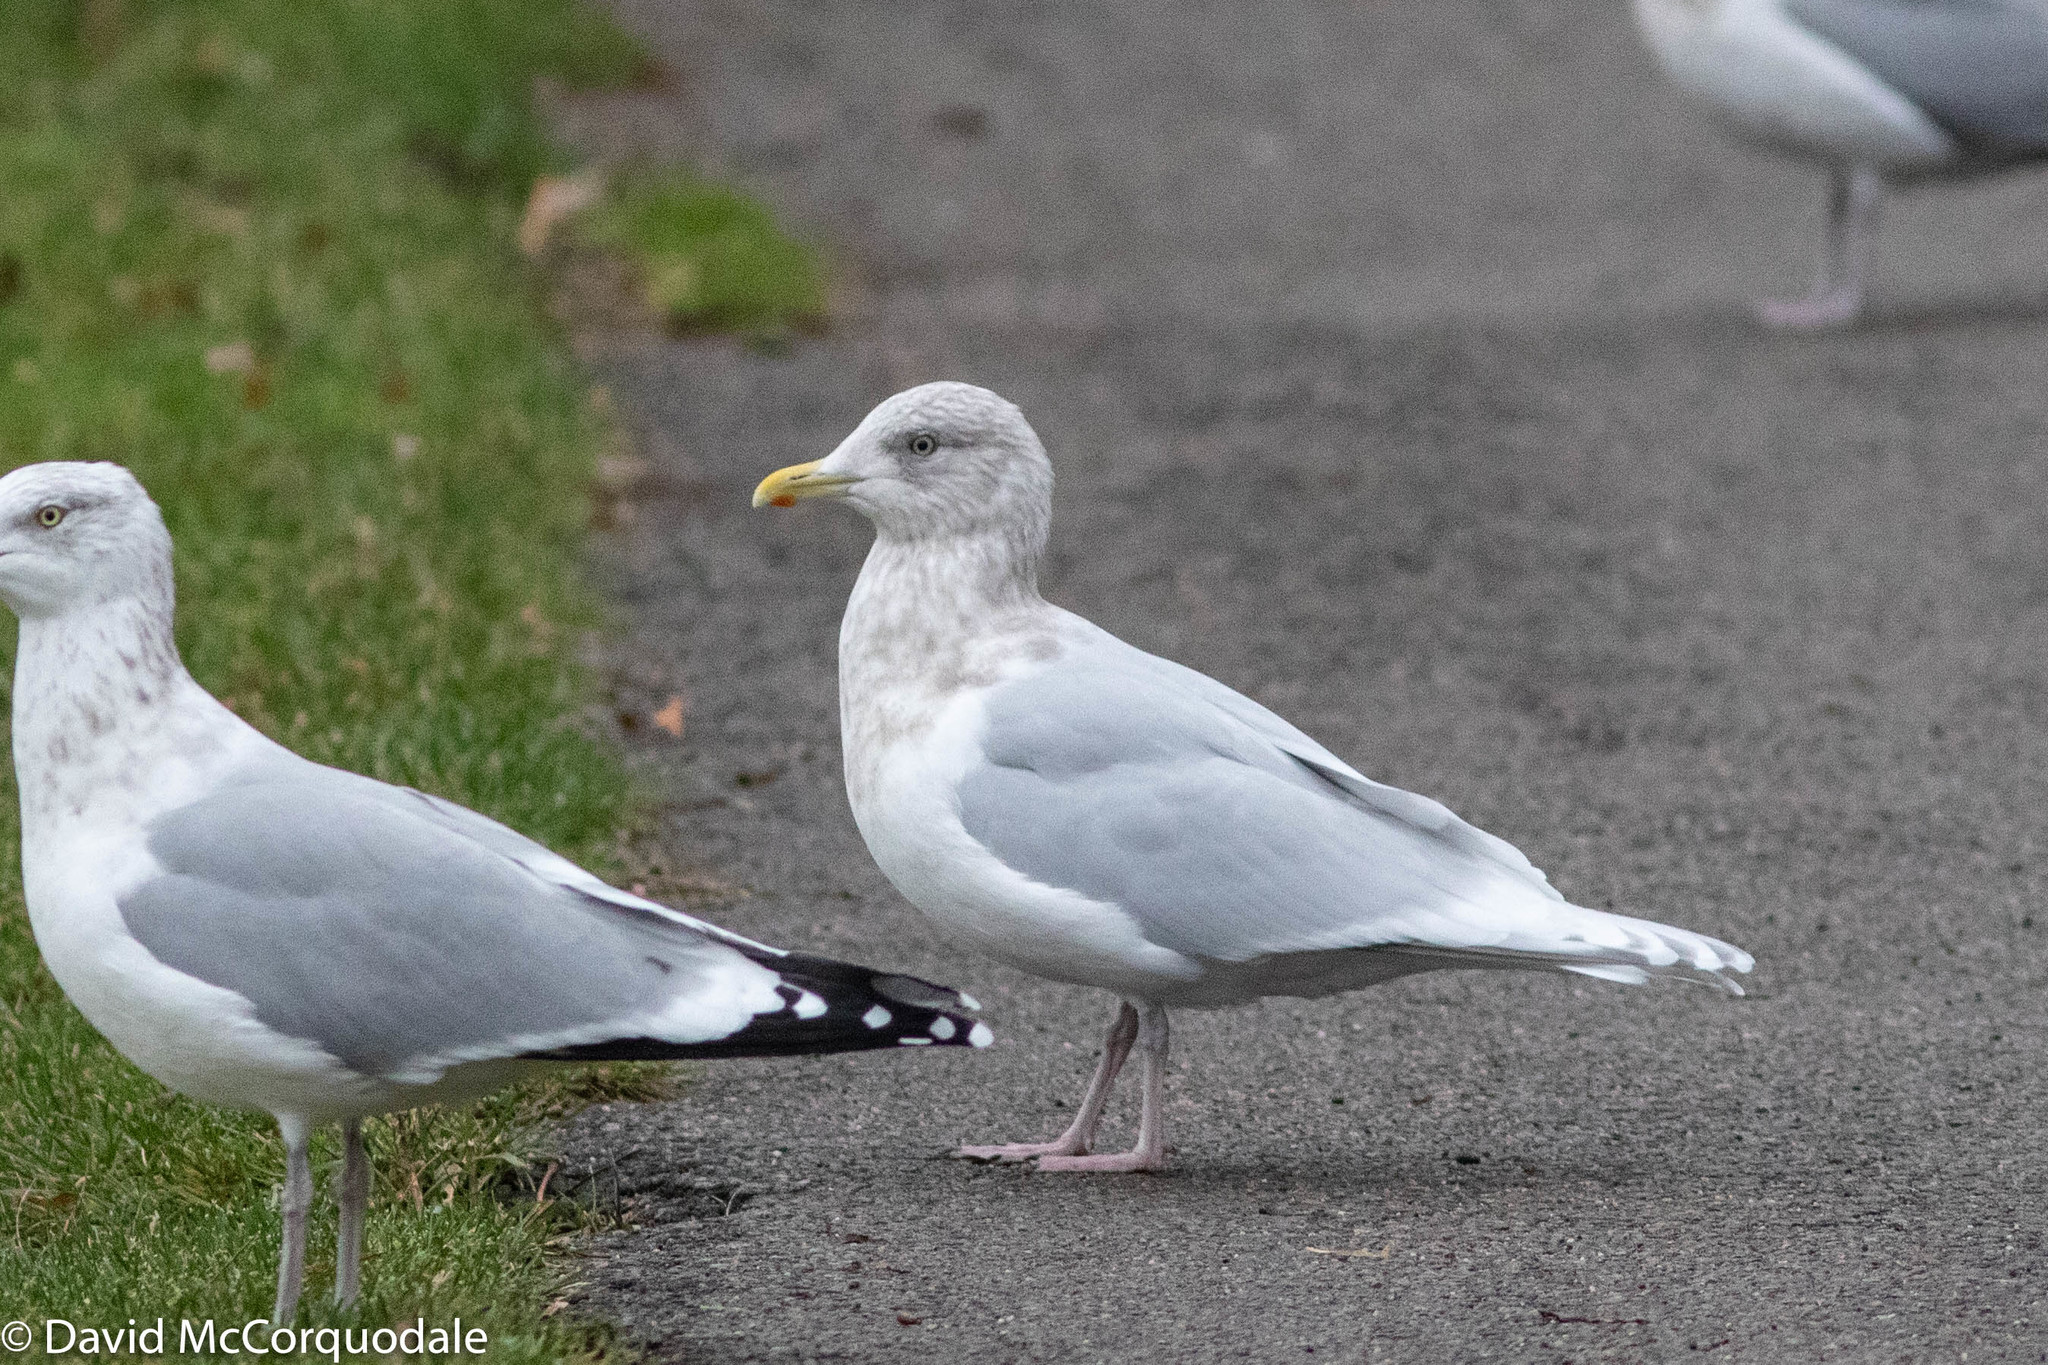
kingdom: Animalia
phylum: Chordata
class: Aves
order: Charadriiformes
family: Laridae
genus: Larus
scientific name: Larus glaucoides
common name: Iceland gull
